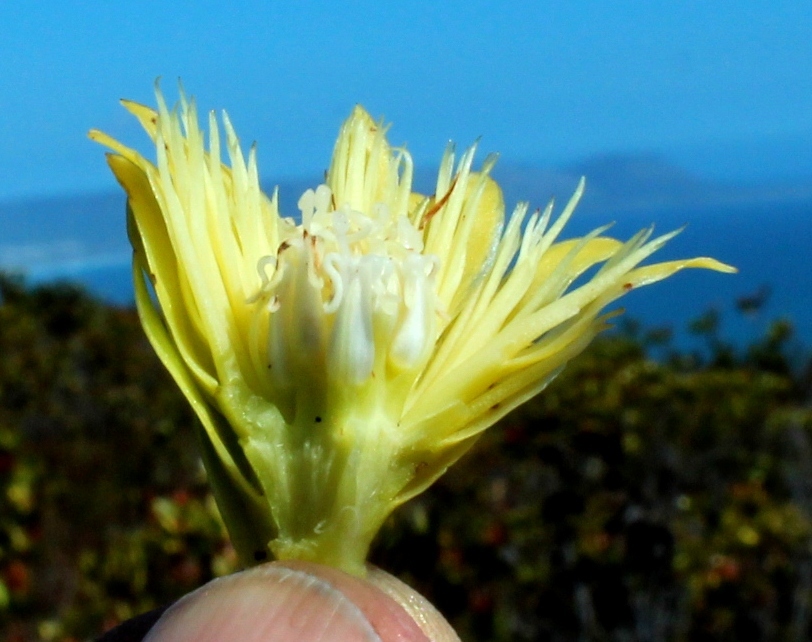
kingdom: Plantae
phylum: Tracheophyta
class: Magnoliopsida
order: Proteales
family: Proteaceae
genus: Aulax
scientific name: Aulax umbellata
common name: Broad-leaf featherbush
